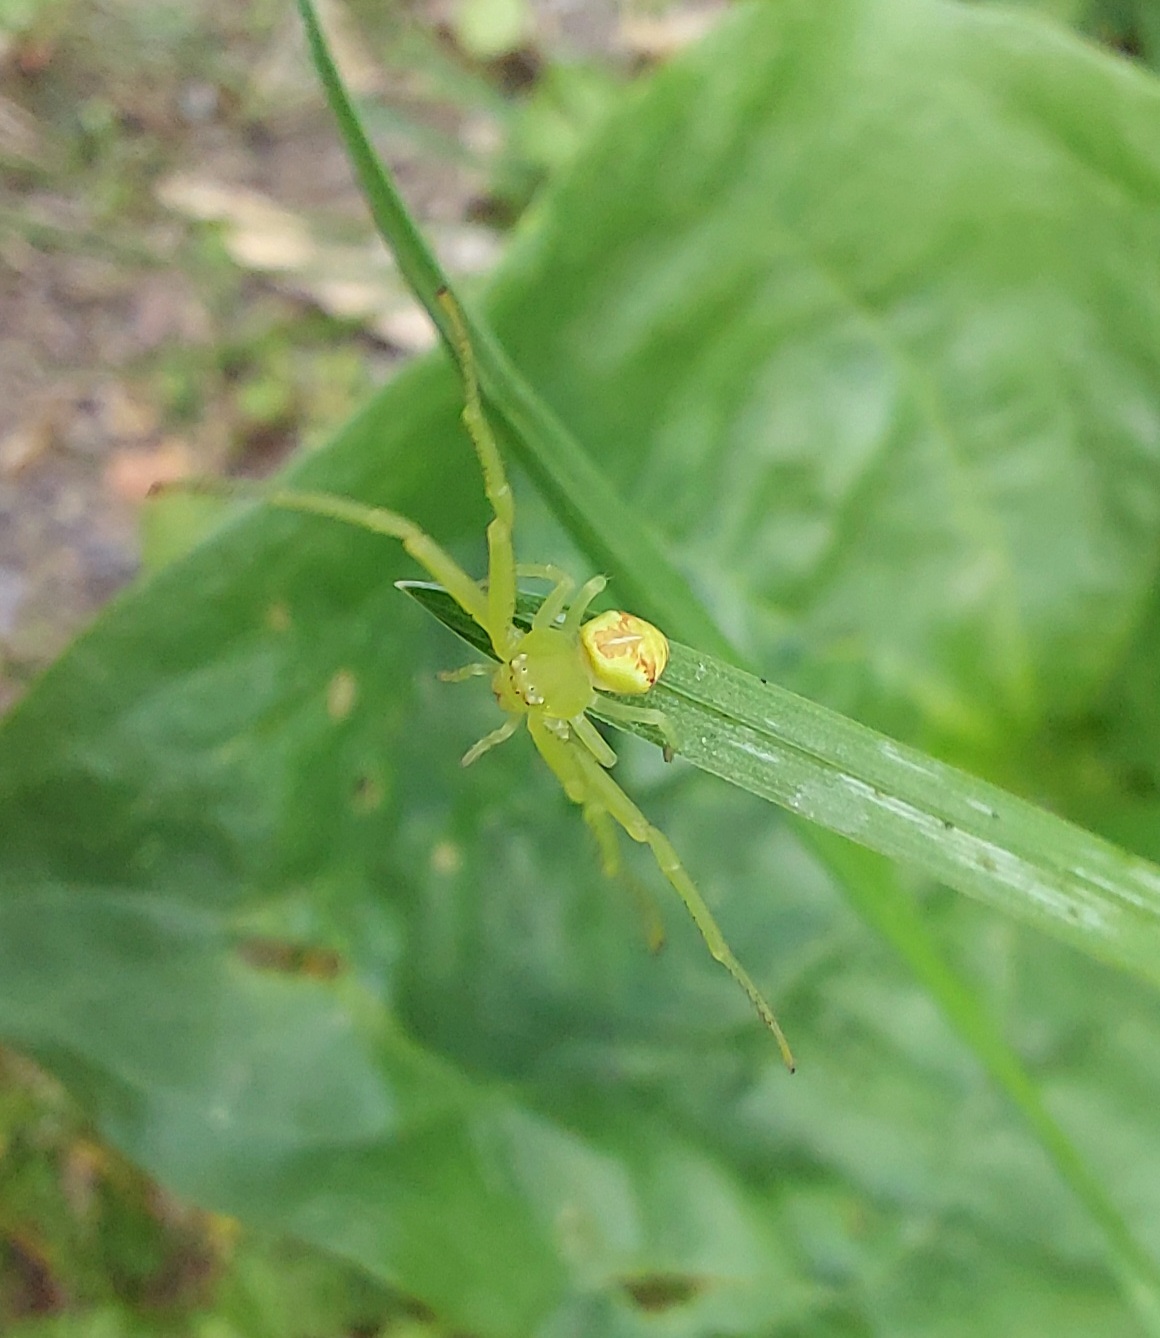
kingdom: Animalia
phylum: Arthropoda
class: Arachnida
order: Araneae
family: Thomisidae
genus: Ebrechtella
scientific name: Ebrechtella tricuspidata
